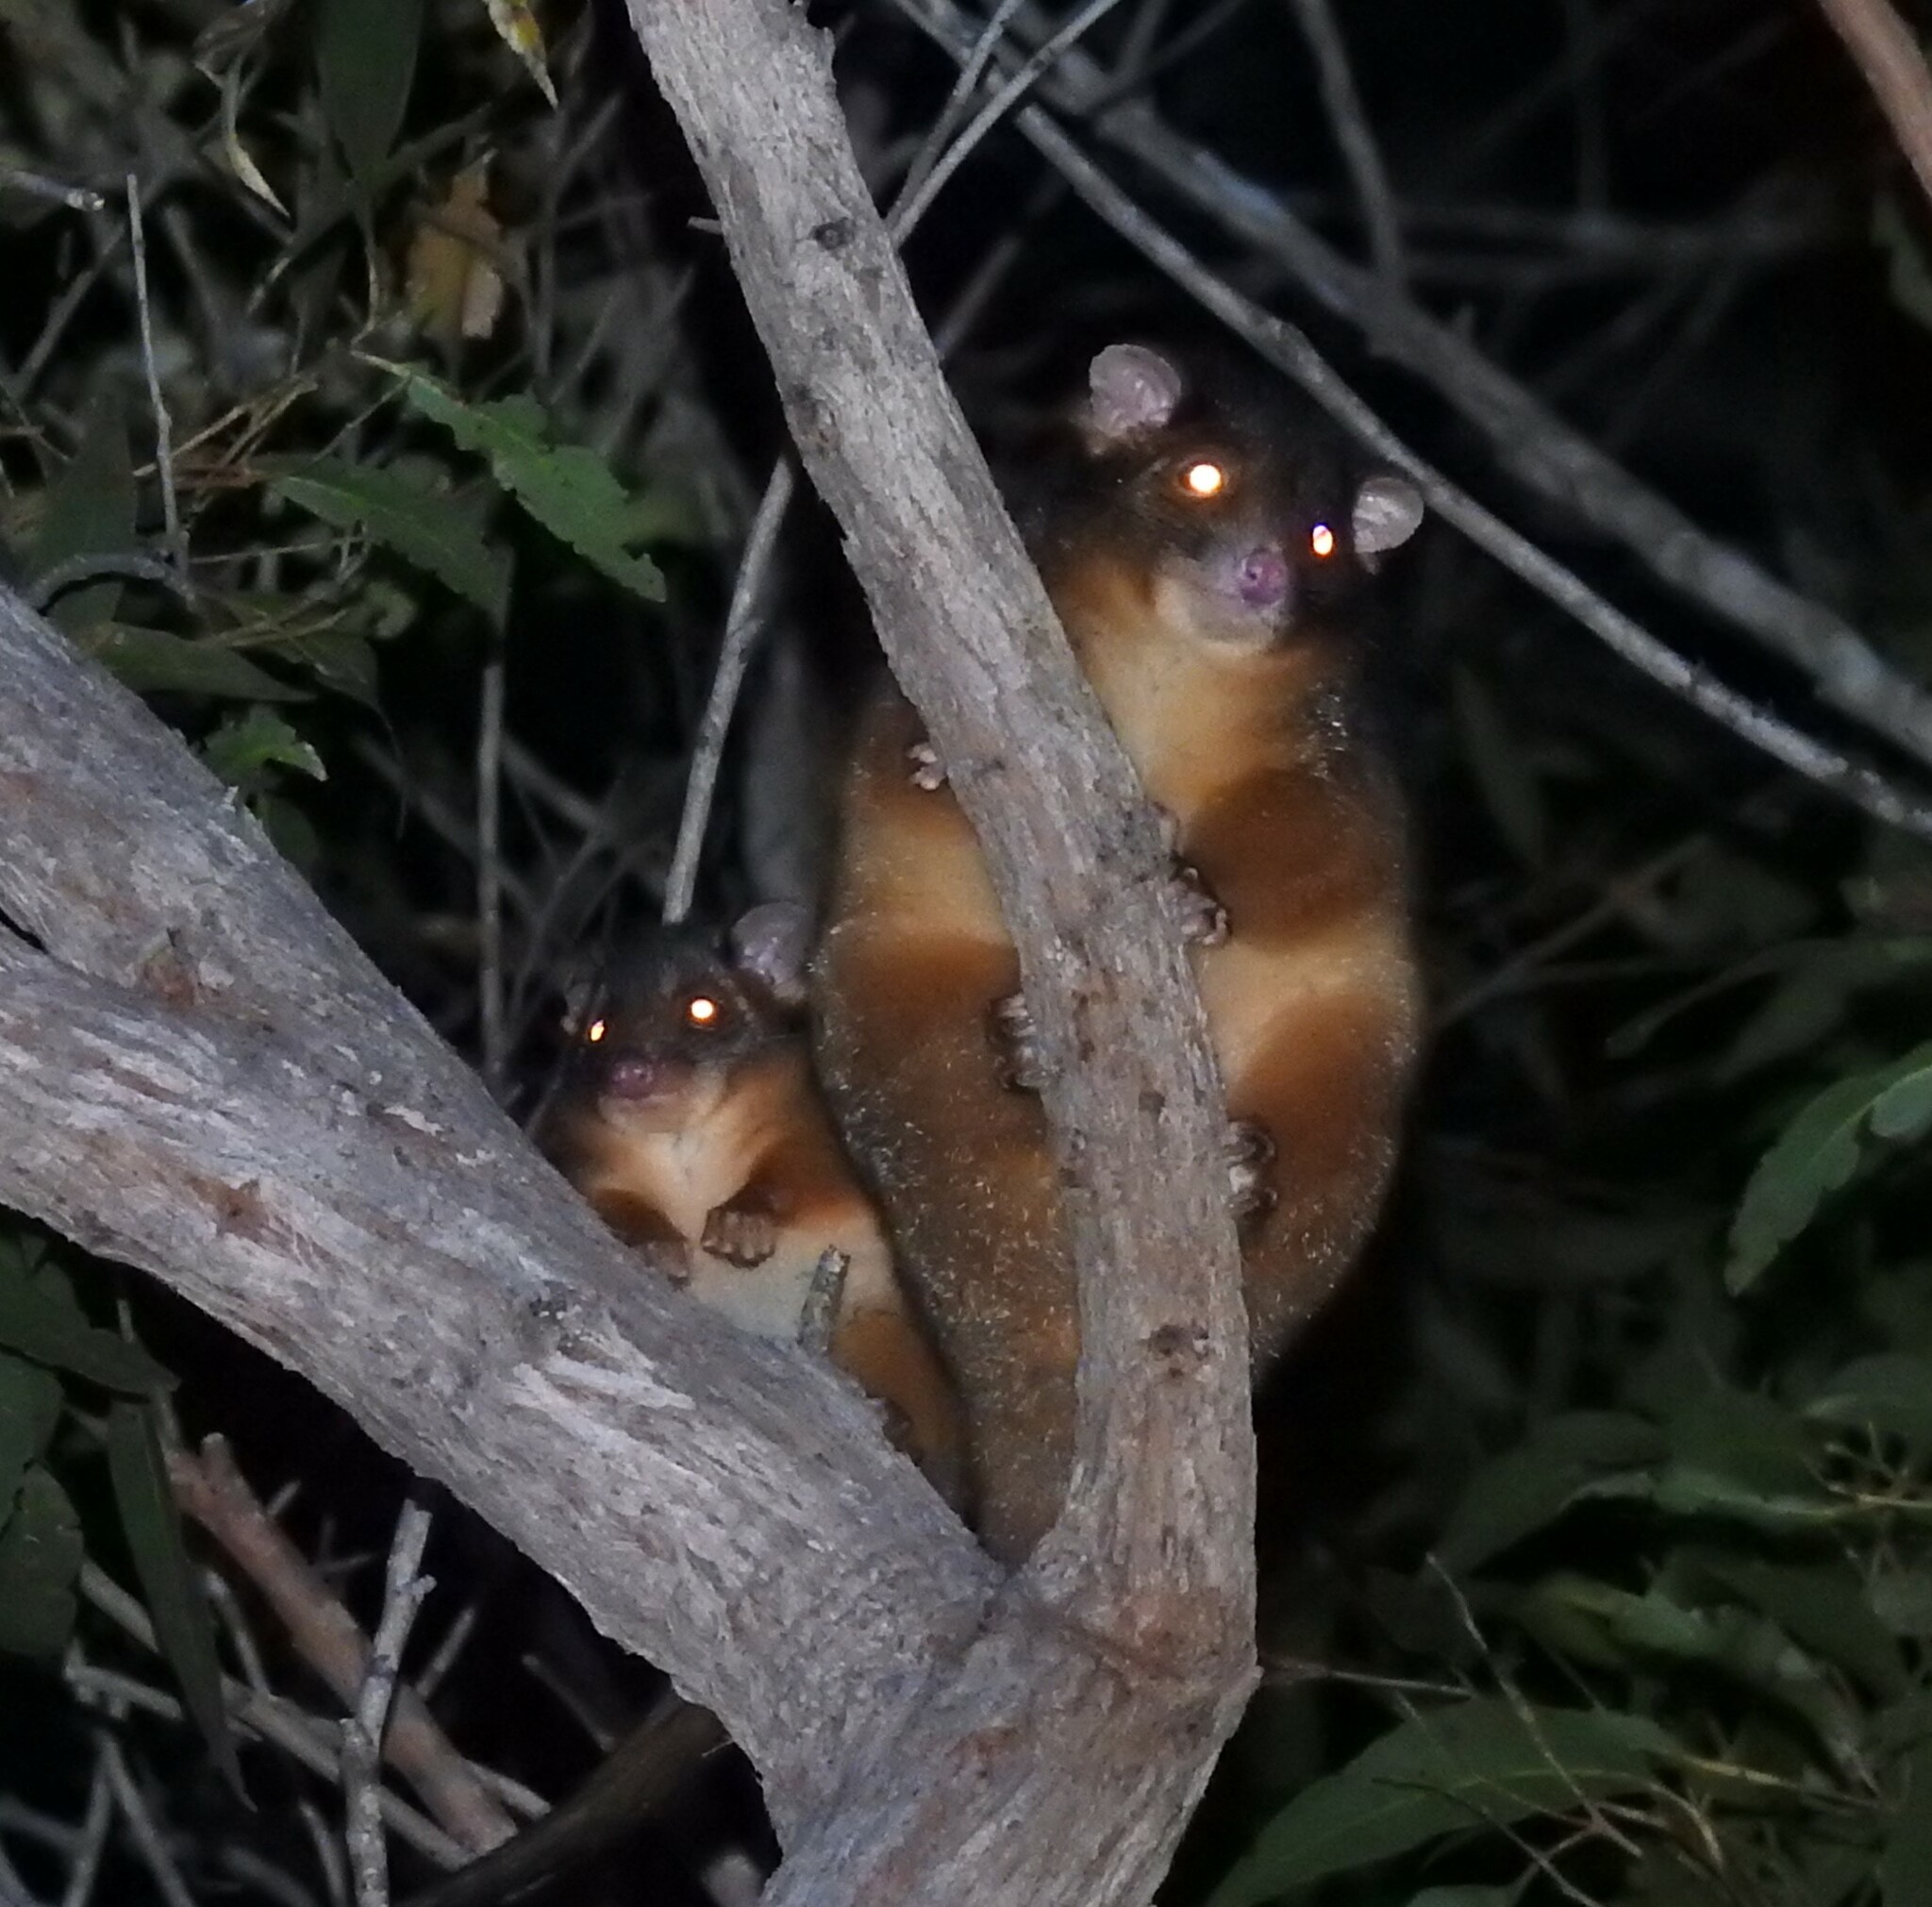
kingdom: Animalia
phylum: Chordata
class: Mammalia
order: Diprotodontia
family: Pseudocheiridae
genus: Pseudocheirus
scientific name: Pseudocheirus peregrinus
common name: Common ringtail possum
